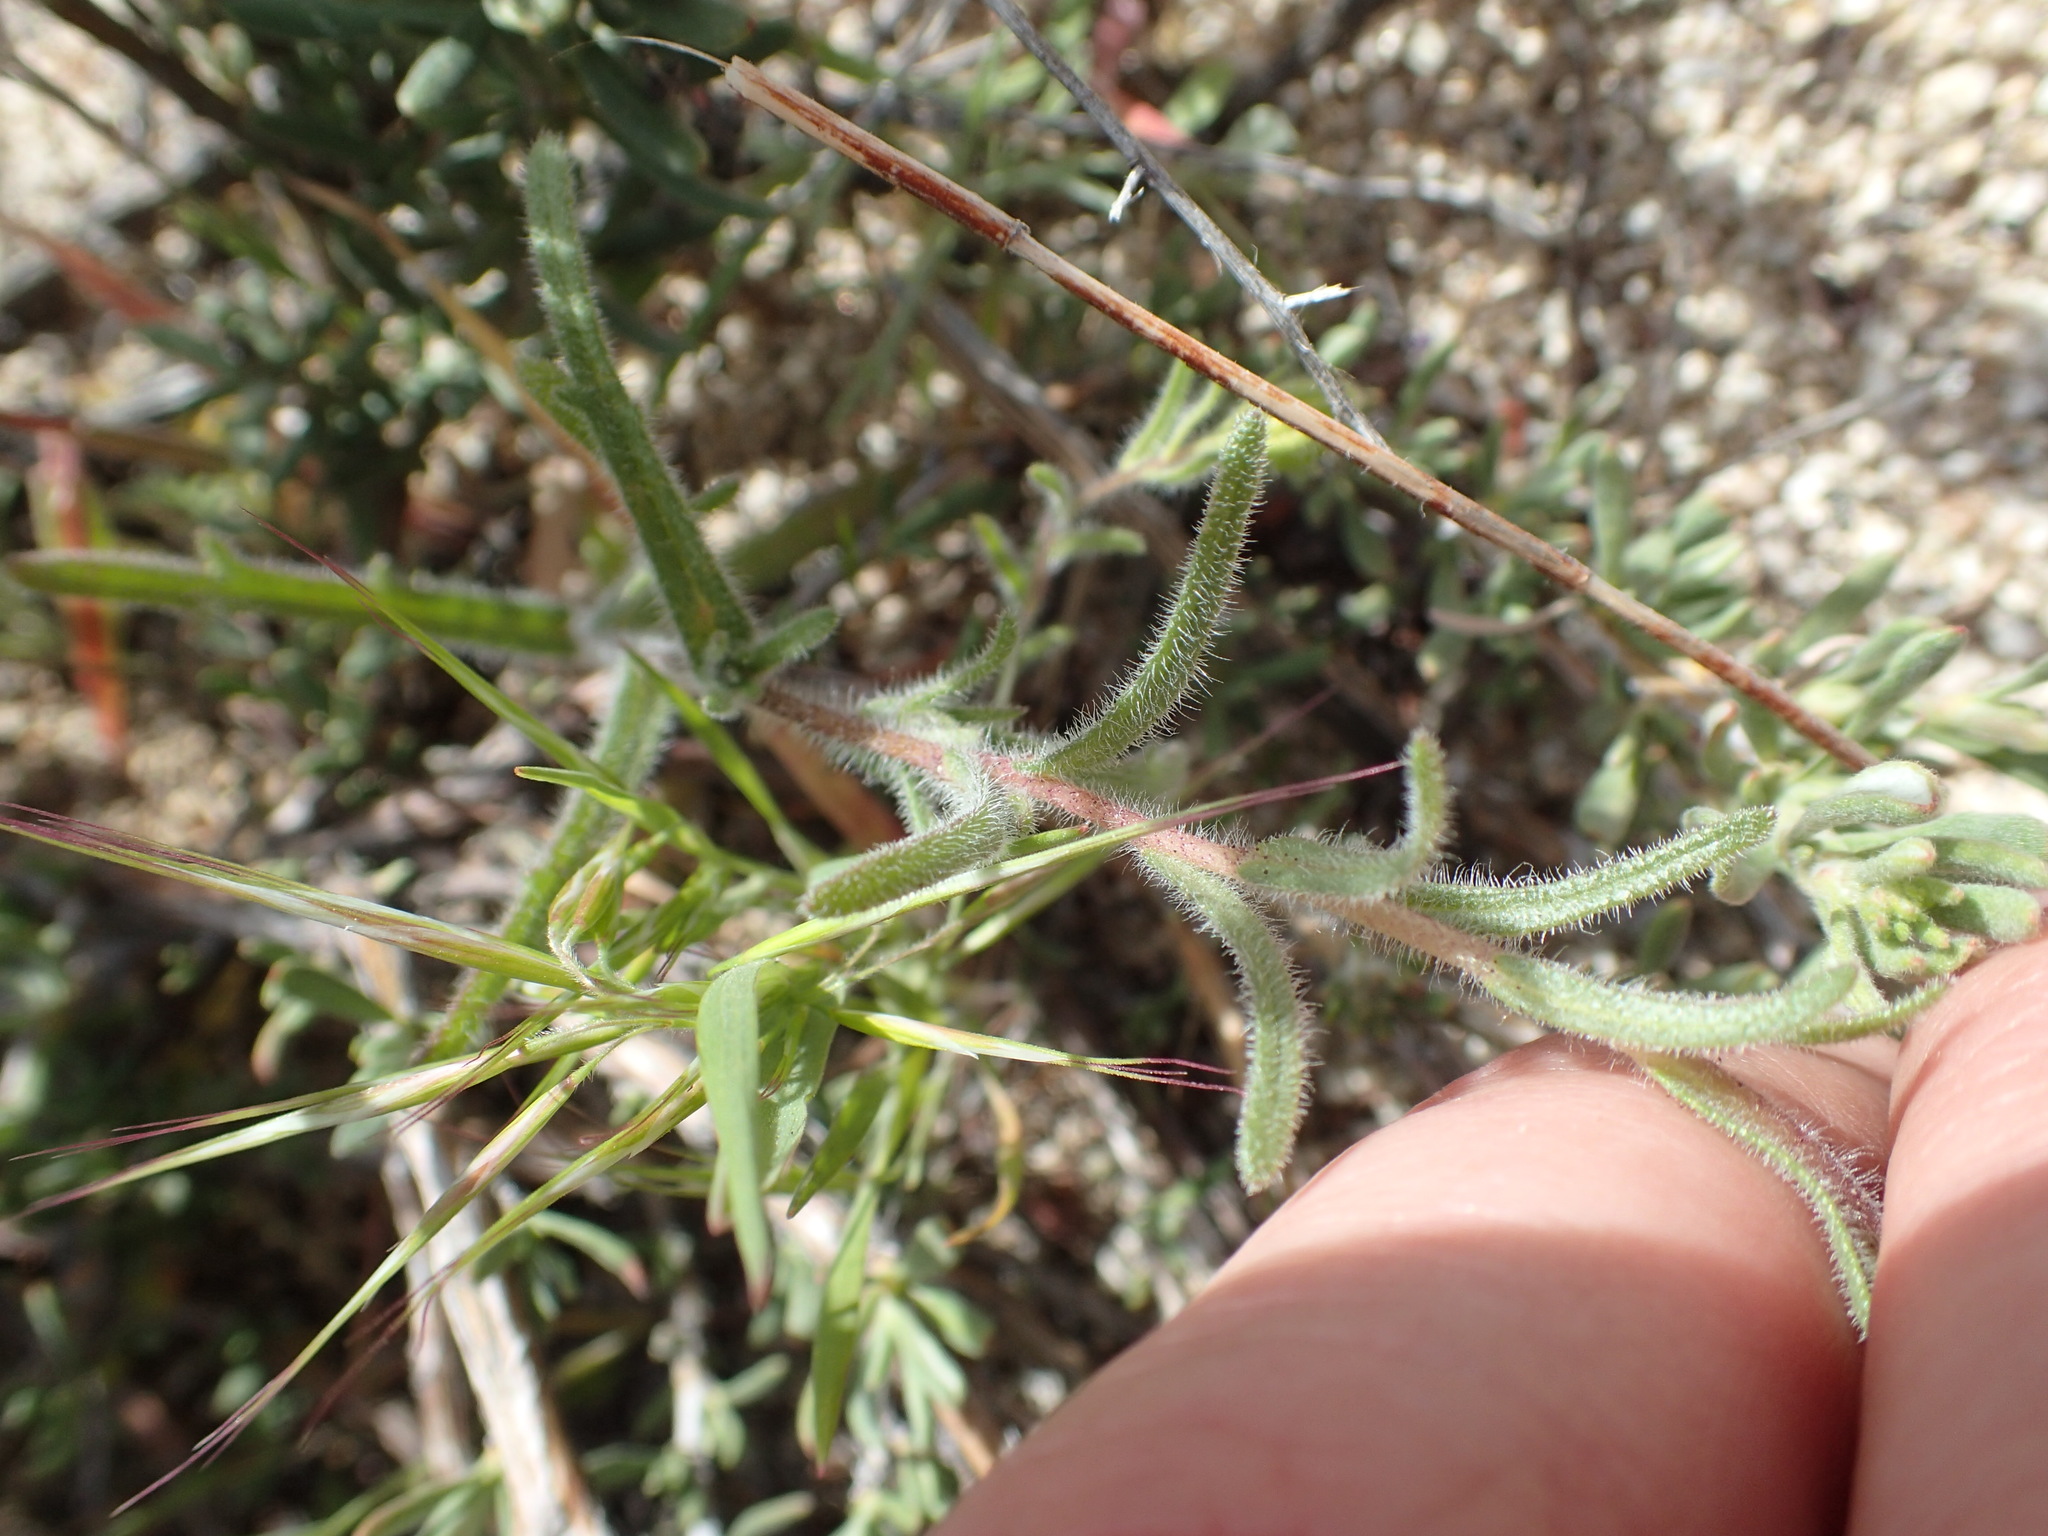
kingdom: Plantae
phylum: Tracheophyta
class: Magnoliopsida
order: Asterales
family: Asteraceae
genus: Layia
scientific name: Layia glandulosa
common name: White layia
